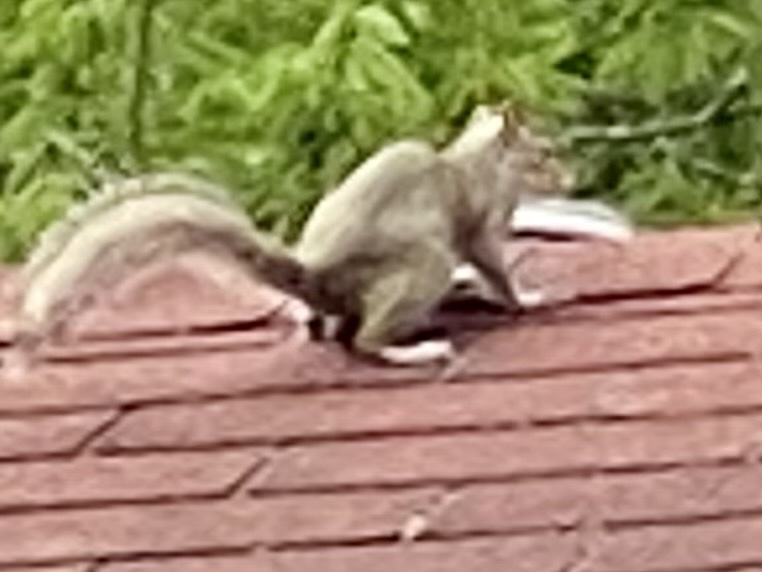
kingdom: Animalia
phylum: Chordata
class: Mammalia
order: Rodentia
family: Sciuridae
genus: Sciurus
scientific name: Sciurus carolinensis
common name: Eastern gray squirrel
